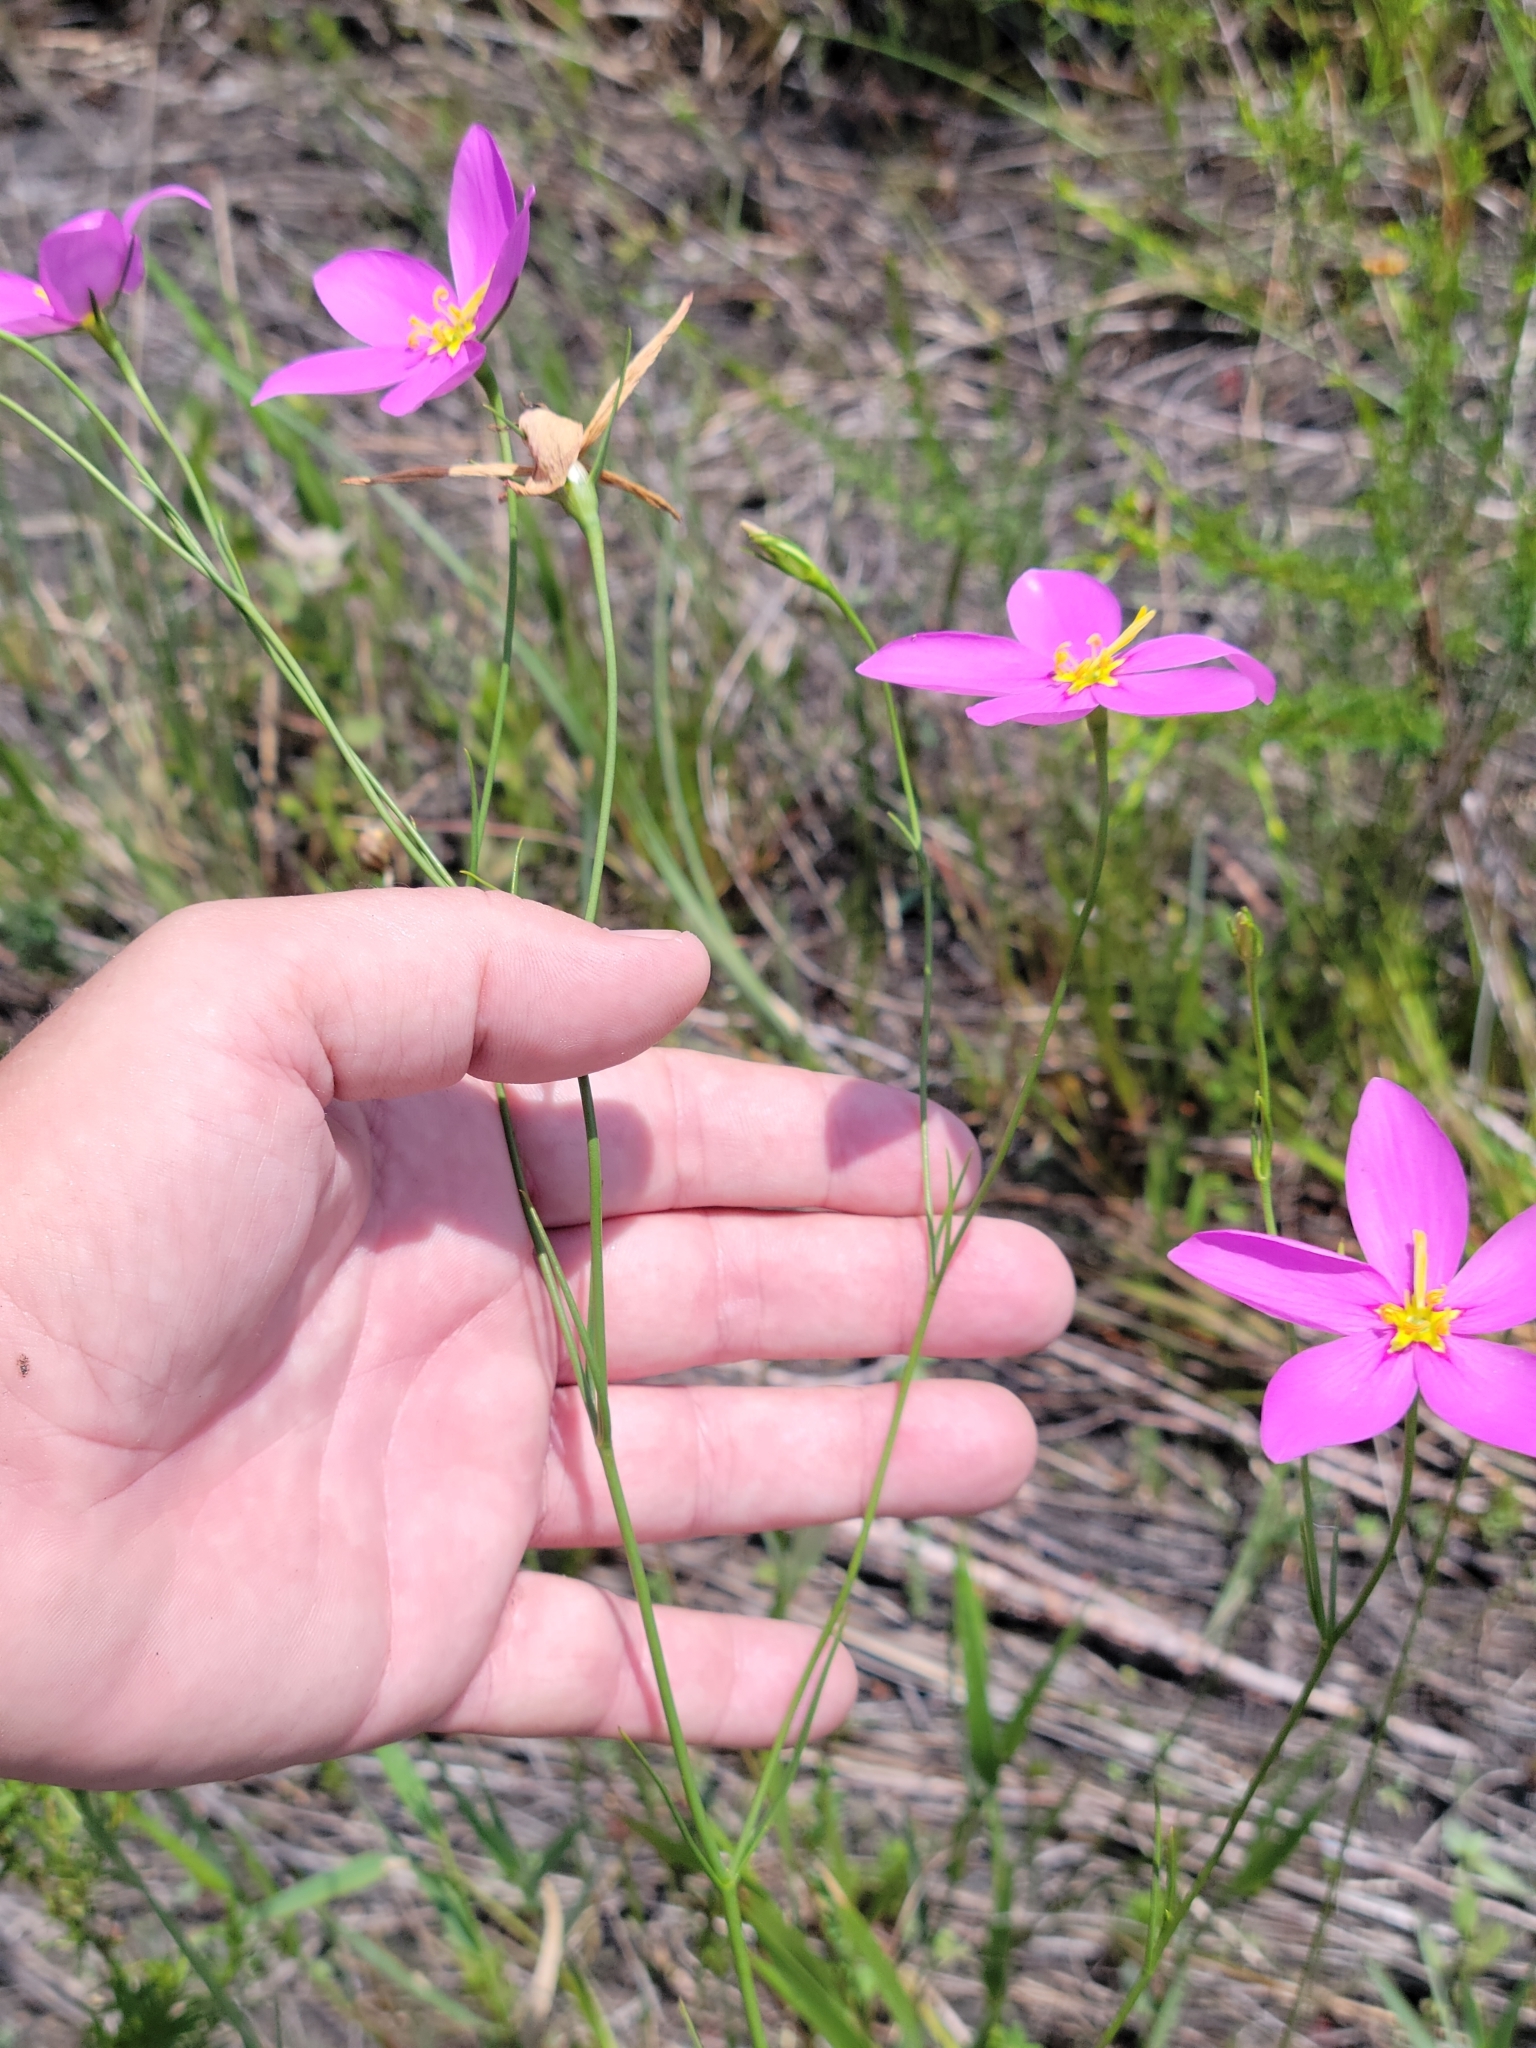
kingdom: Plantae
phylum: Tracheophyta
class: Magnoliopsida
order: Gentianales
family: Gentianaceae
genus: Sabatia
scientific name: Sabatia grandiflora
